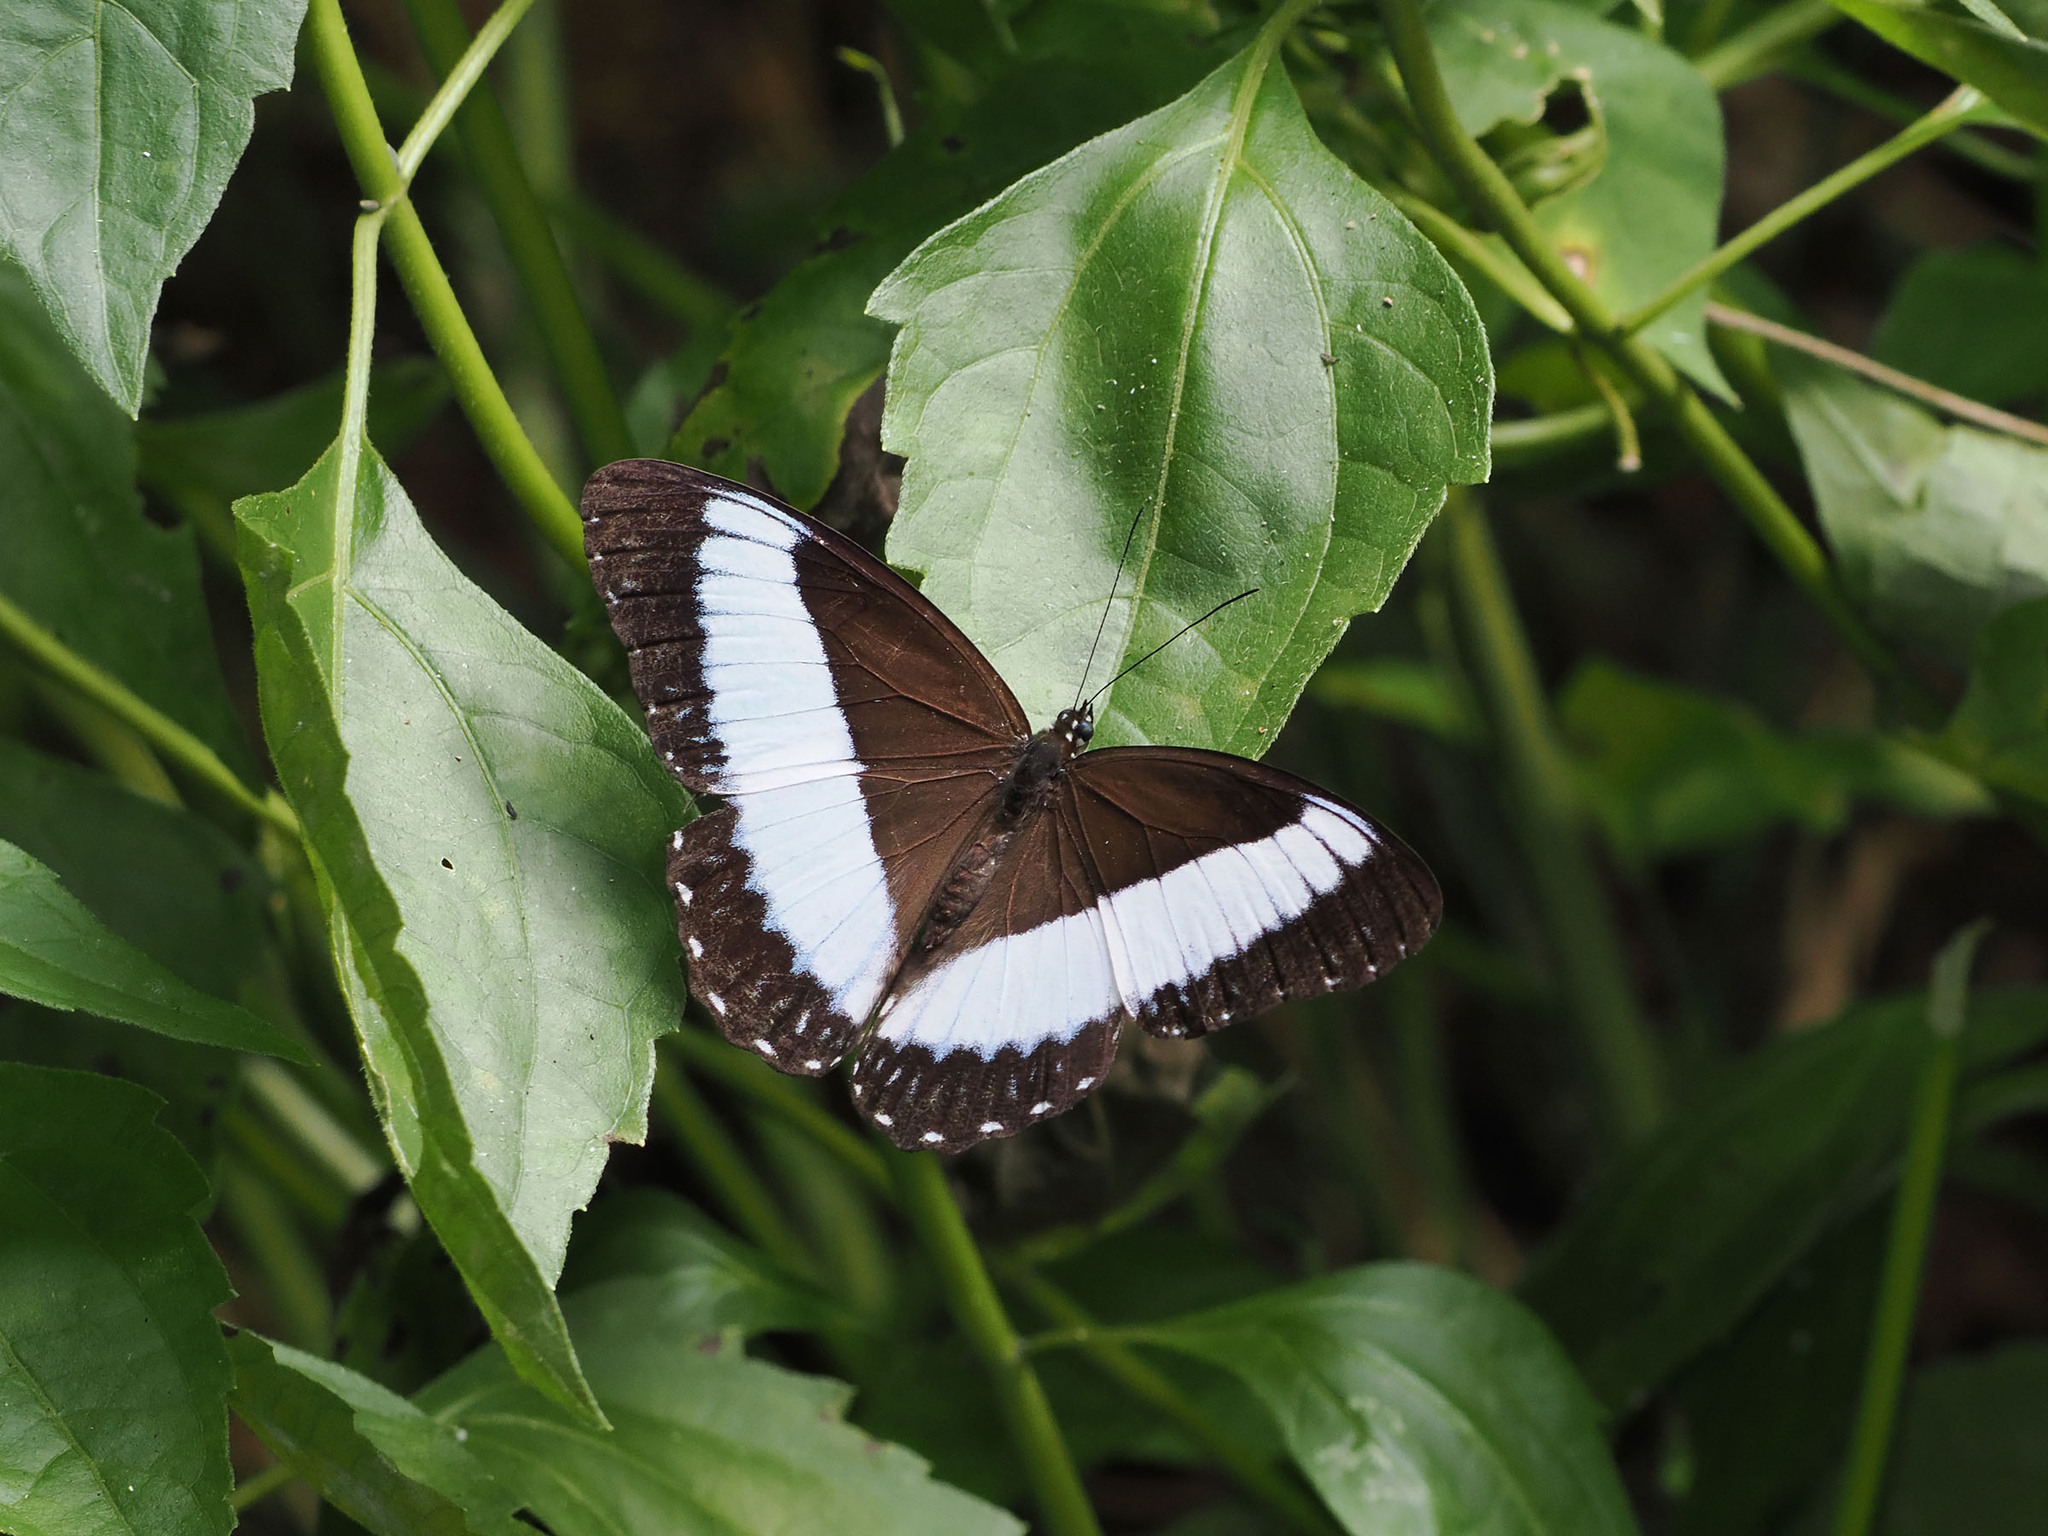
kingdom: Animalia
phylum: Arthropoda
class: Insecta
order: Lepidoptera
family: Nymphalidae
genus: Zethera
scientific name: Zethera pimplea
